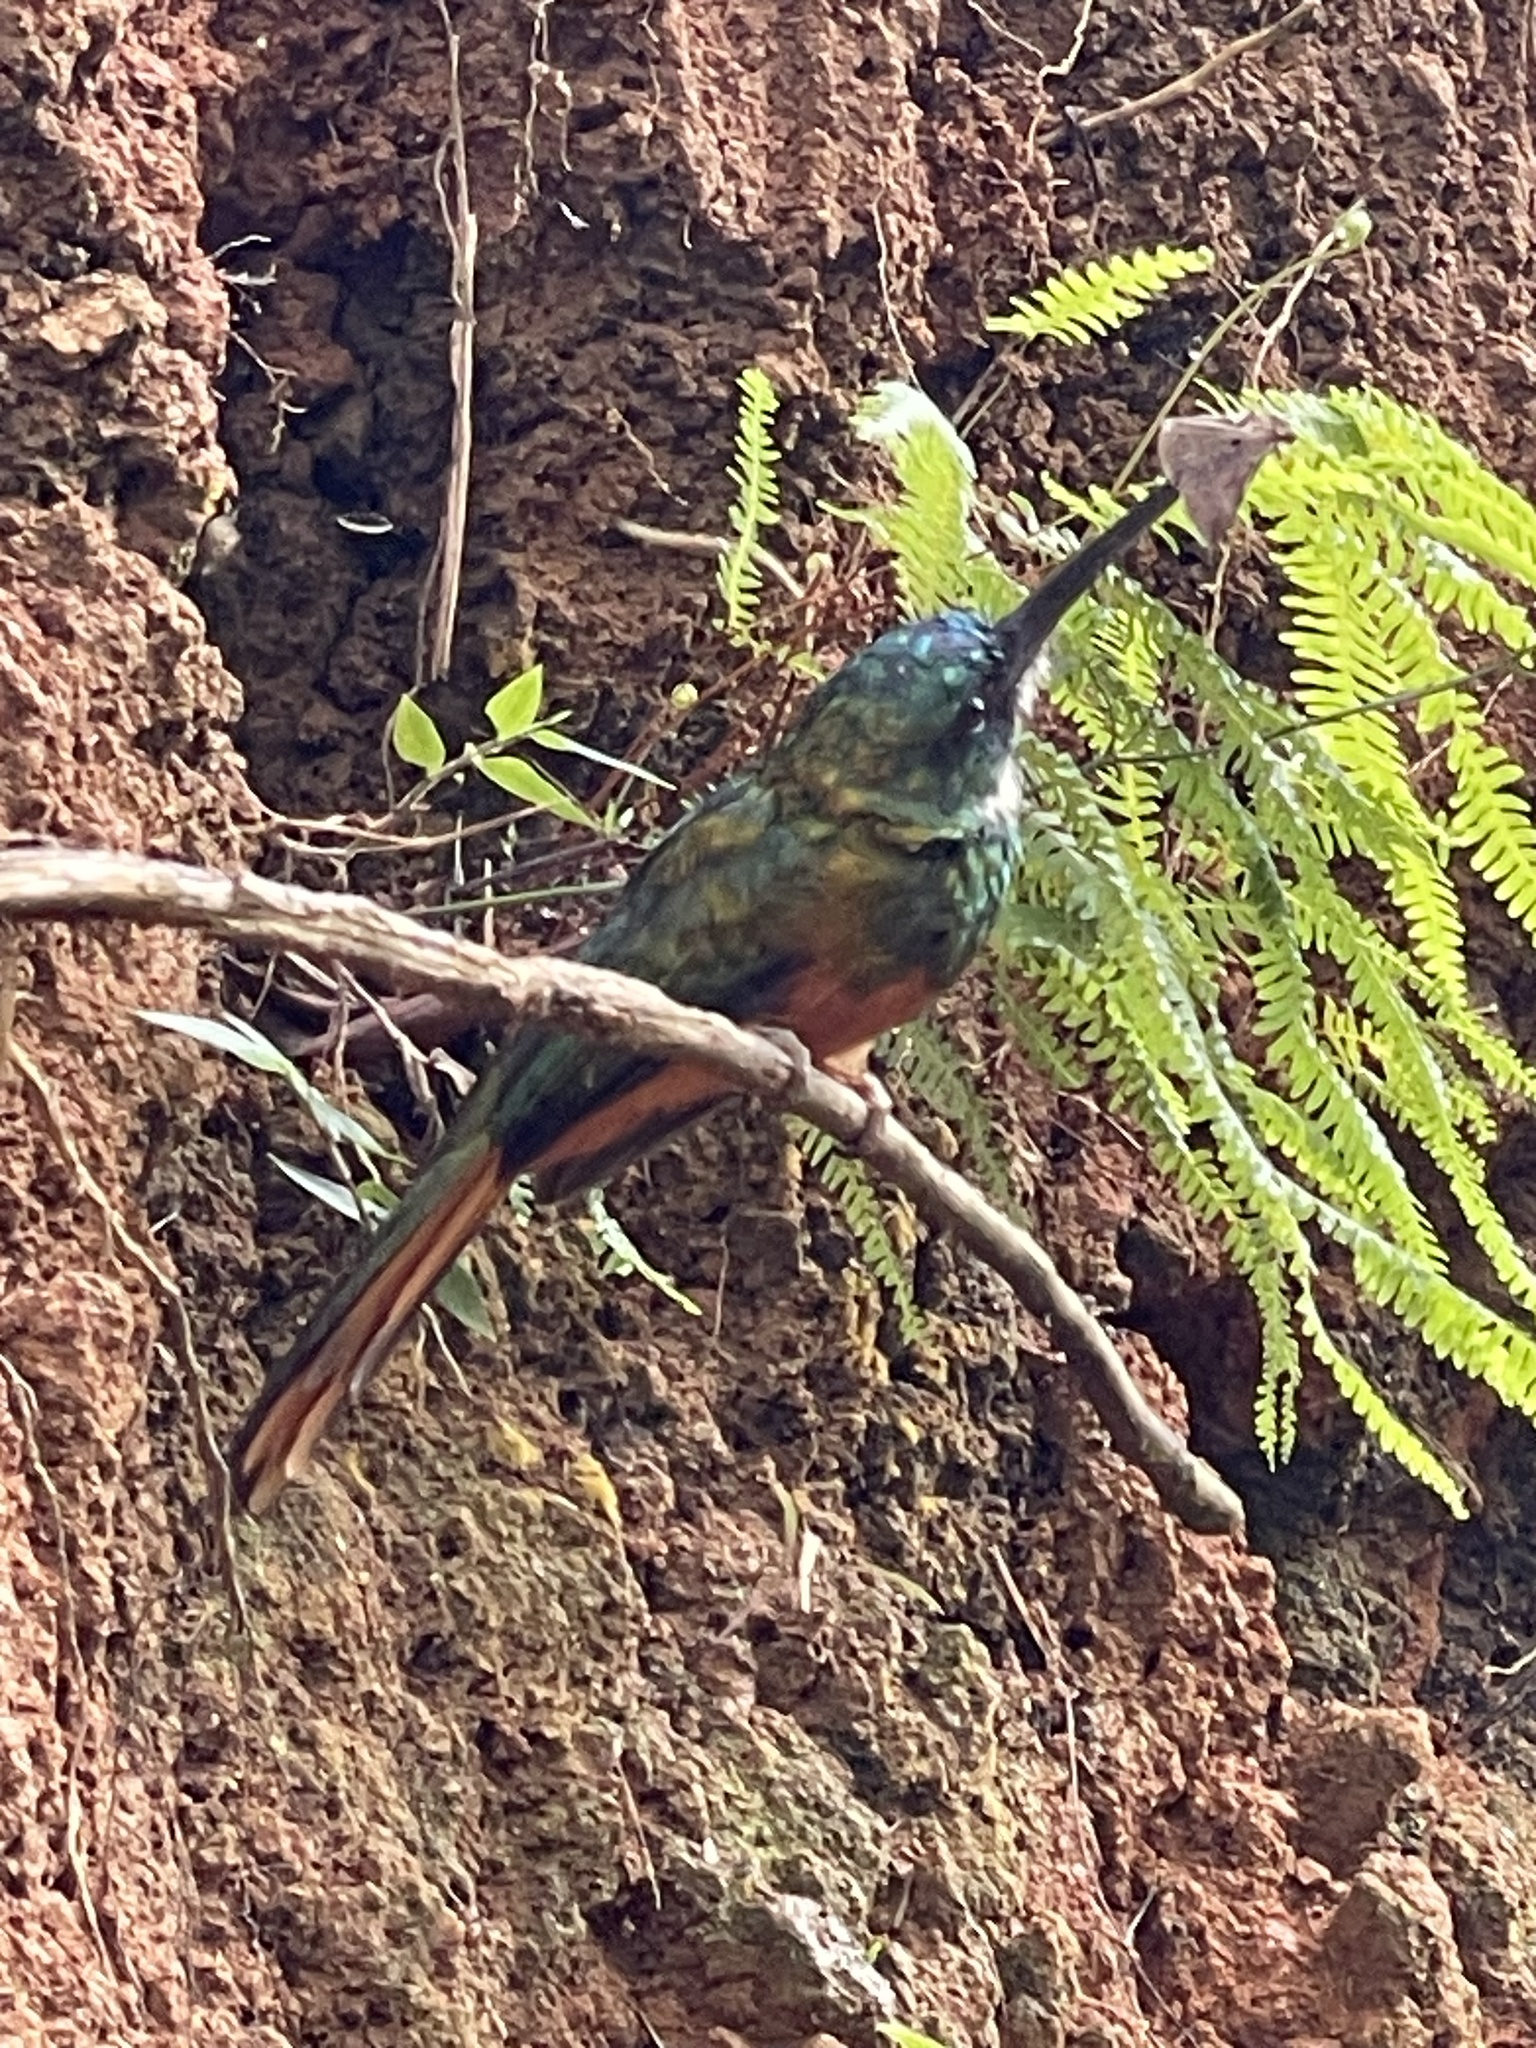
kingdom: Animalia
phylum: Chordata
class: Aves
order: Piciformes
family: Galbulidae
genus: Galbula
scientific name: Galbula ruficauda
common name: Rufous-tailed jacamar
